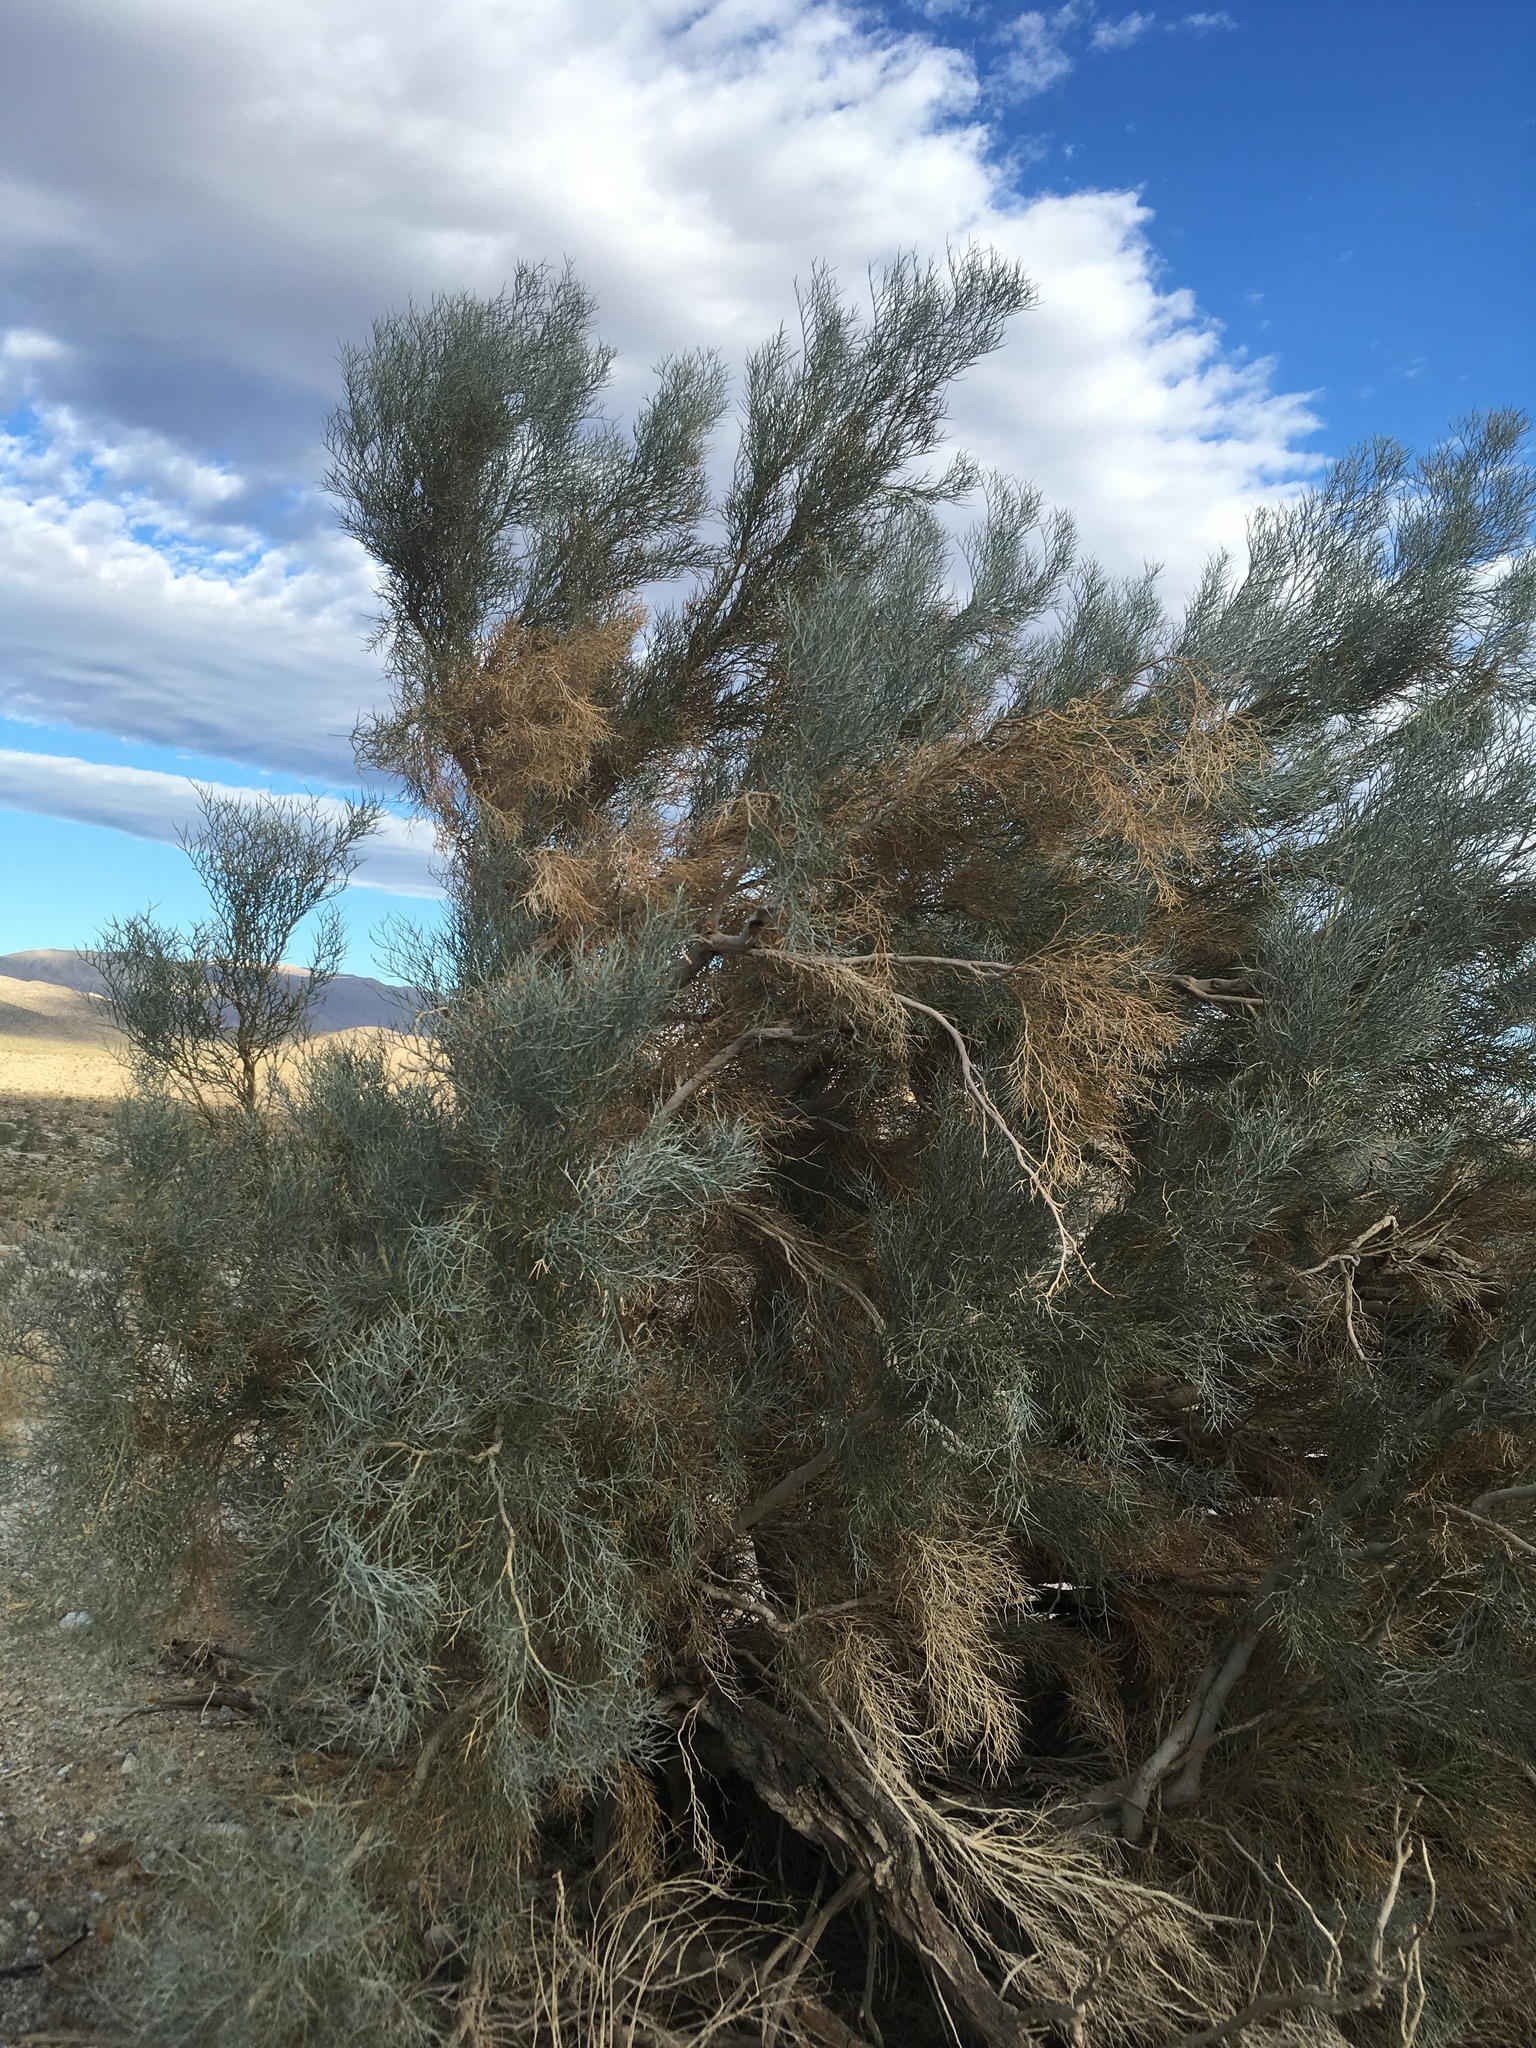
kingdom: Plantae
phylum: Tracheophyta
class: Magnoliopsida
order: Fabales
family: Fabaceae
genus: Psorothamnus
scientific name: Psorothamnus spinosus
